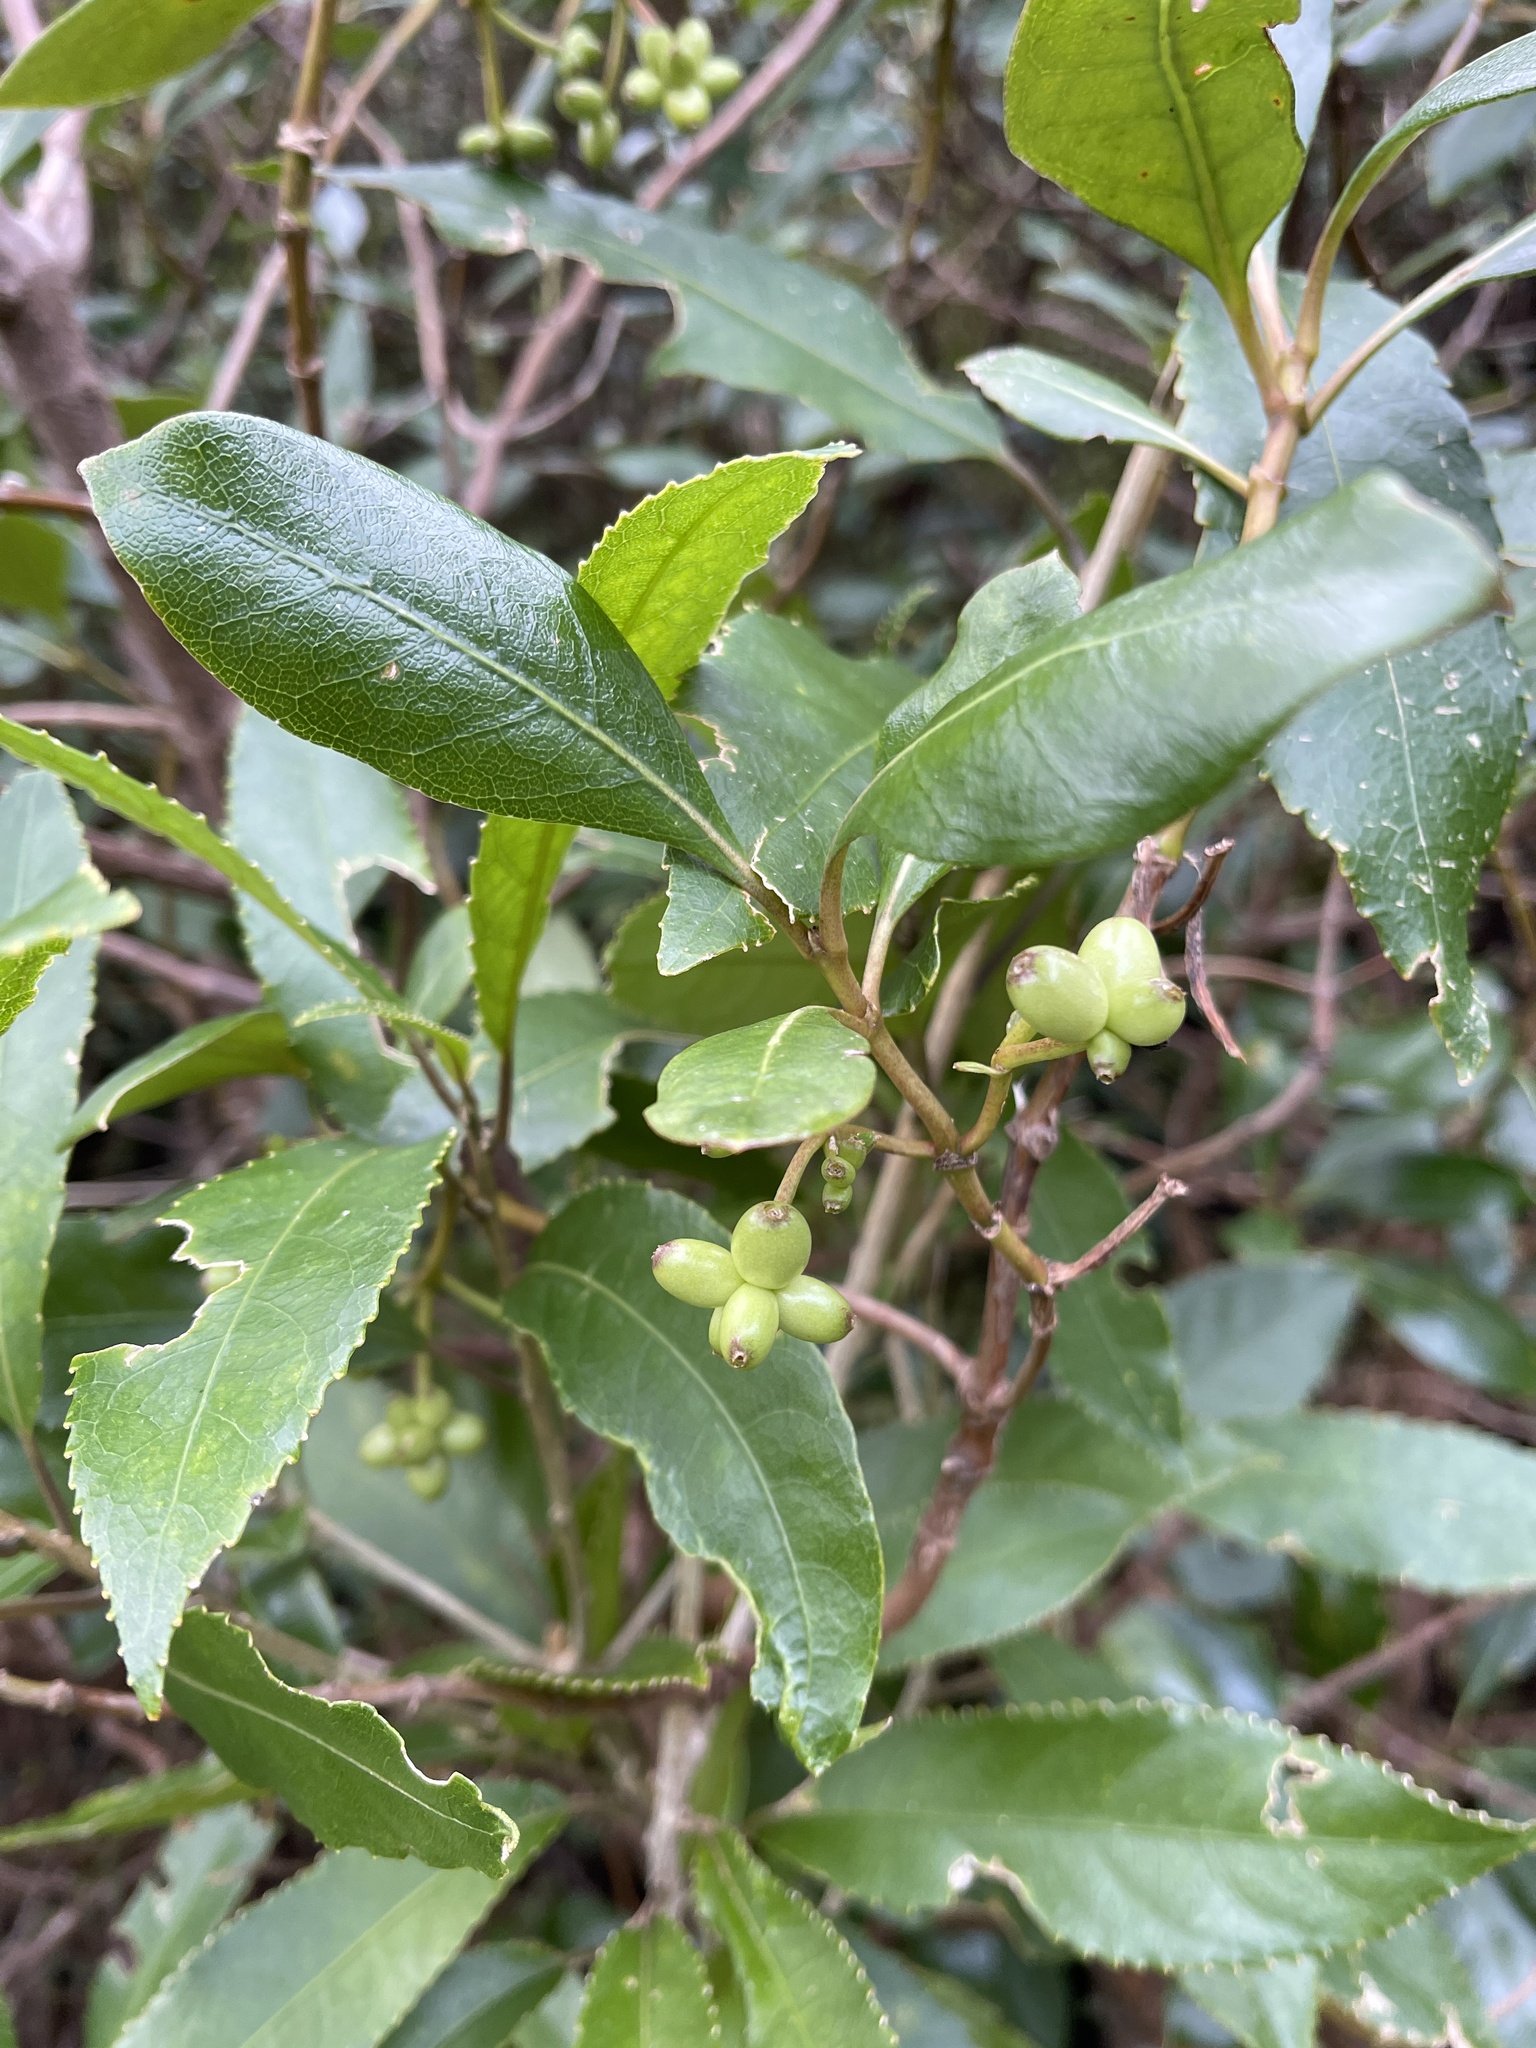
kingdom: Plantae
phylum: Tracheophyta
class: Magnoliopsida
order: Gentianales
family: Rubiaceae
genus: Coprosma
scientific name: Coprosma lucida
